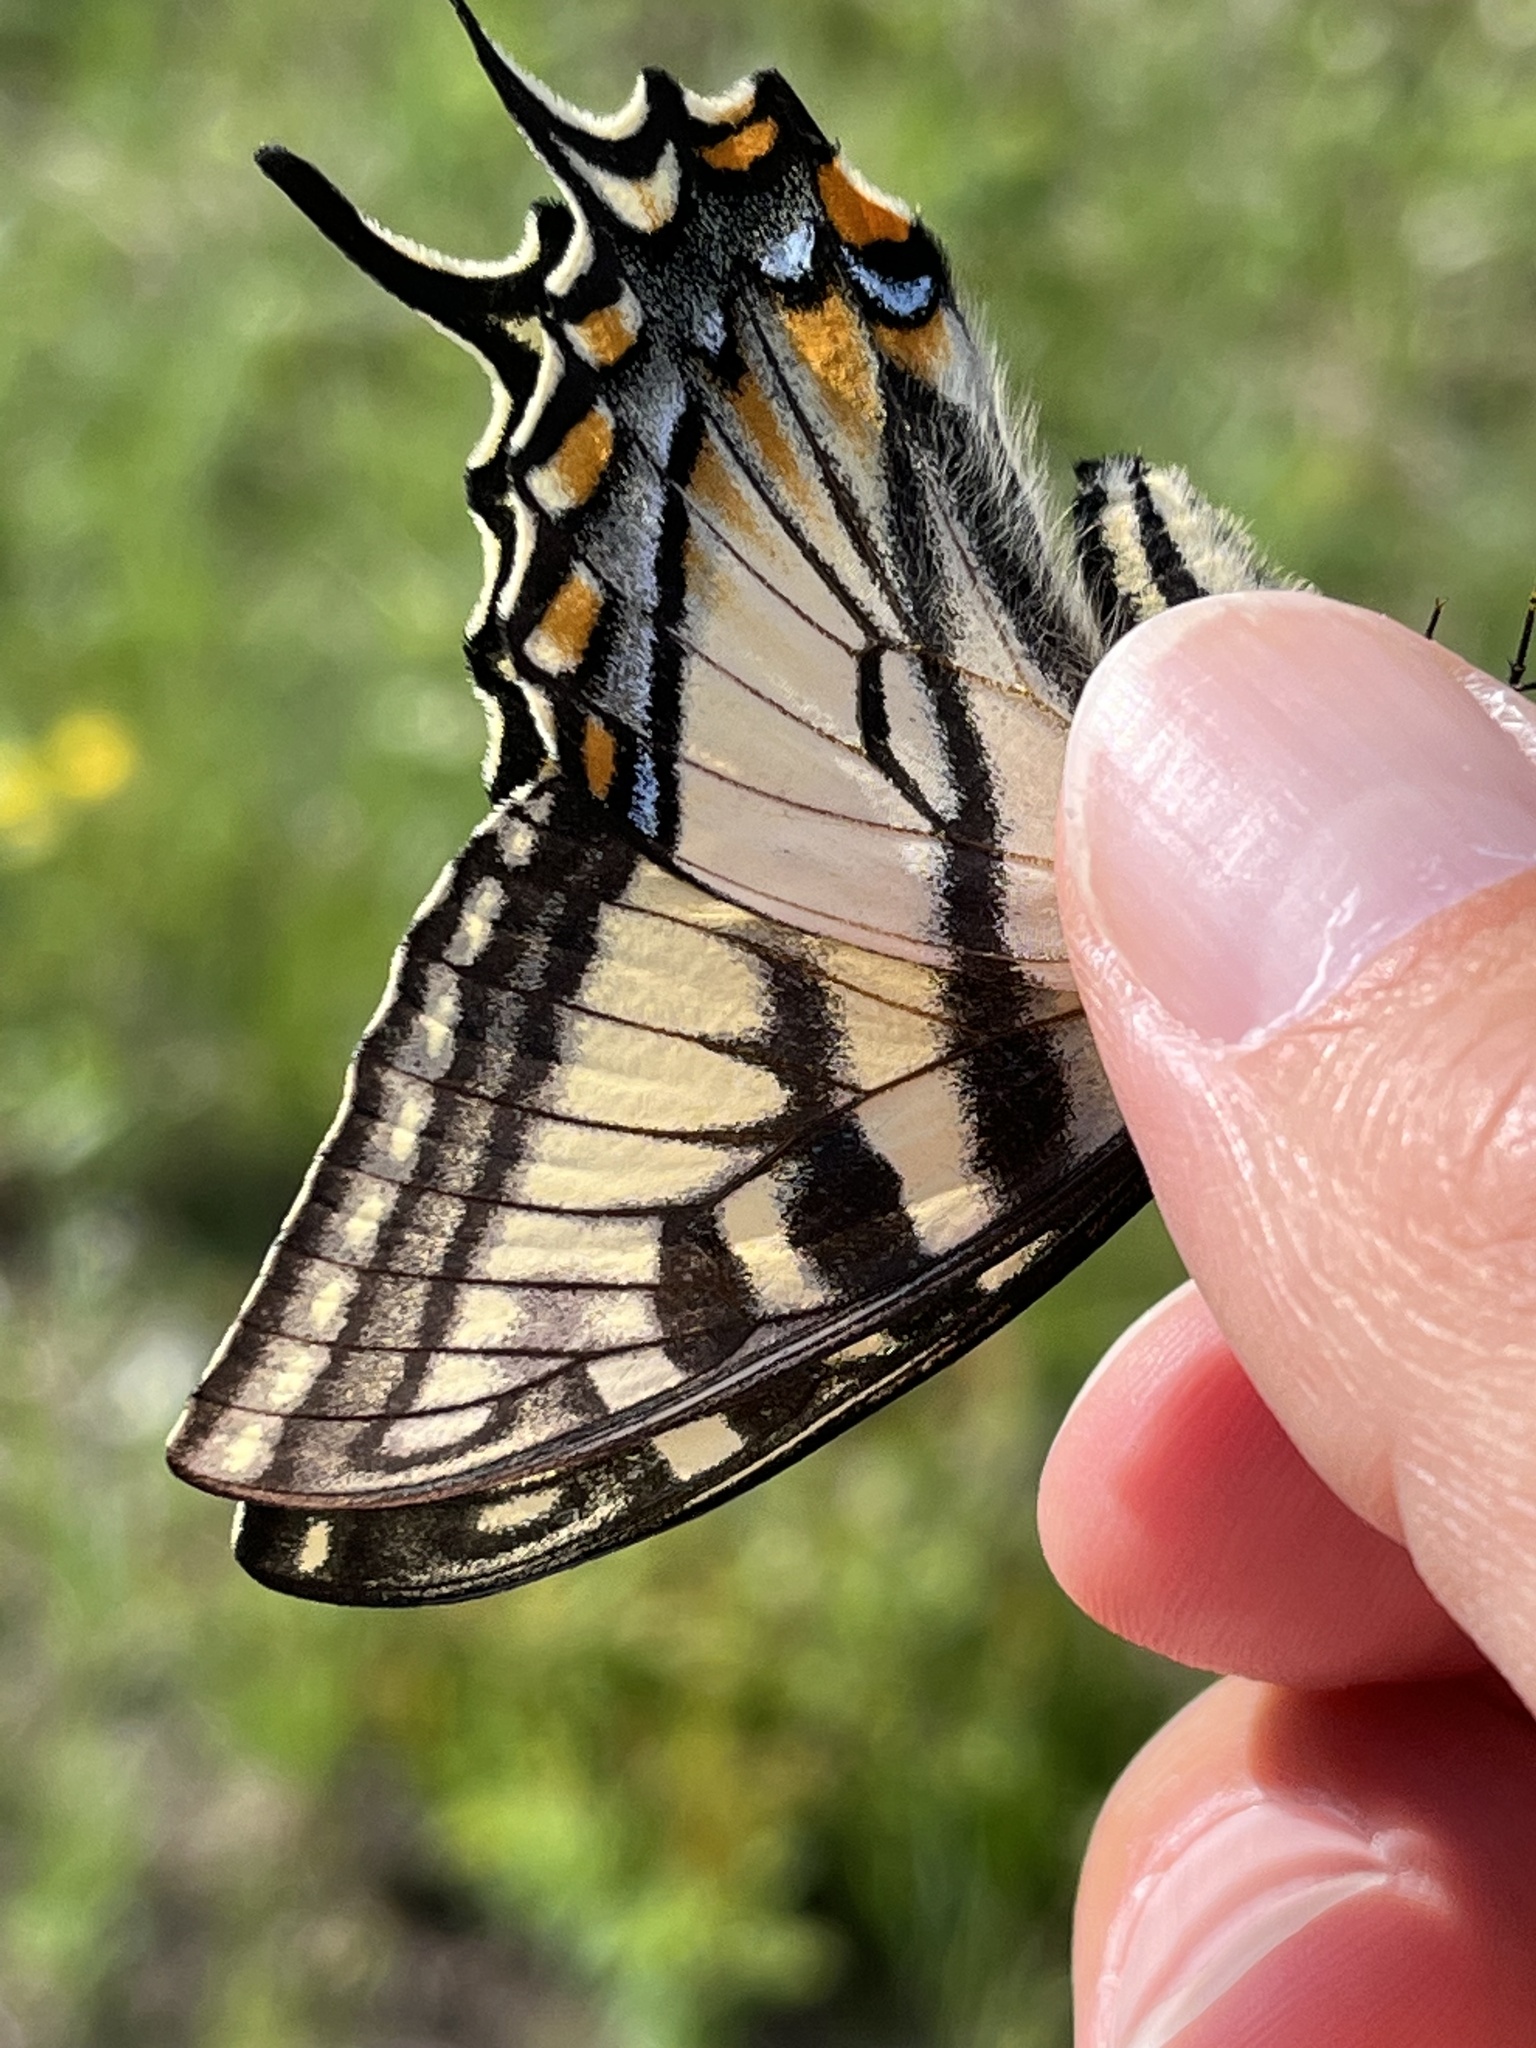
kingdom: Animalia
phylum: Arthropoda
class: Insecta
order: Lepidoptera
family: Papilionidae
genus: Papilio
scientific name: Papilio canadensis
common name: Canadian tiger swallowtail
